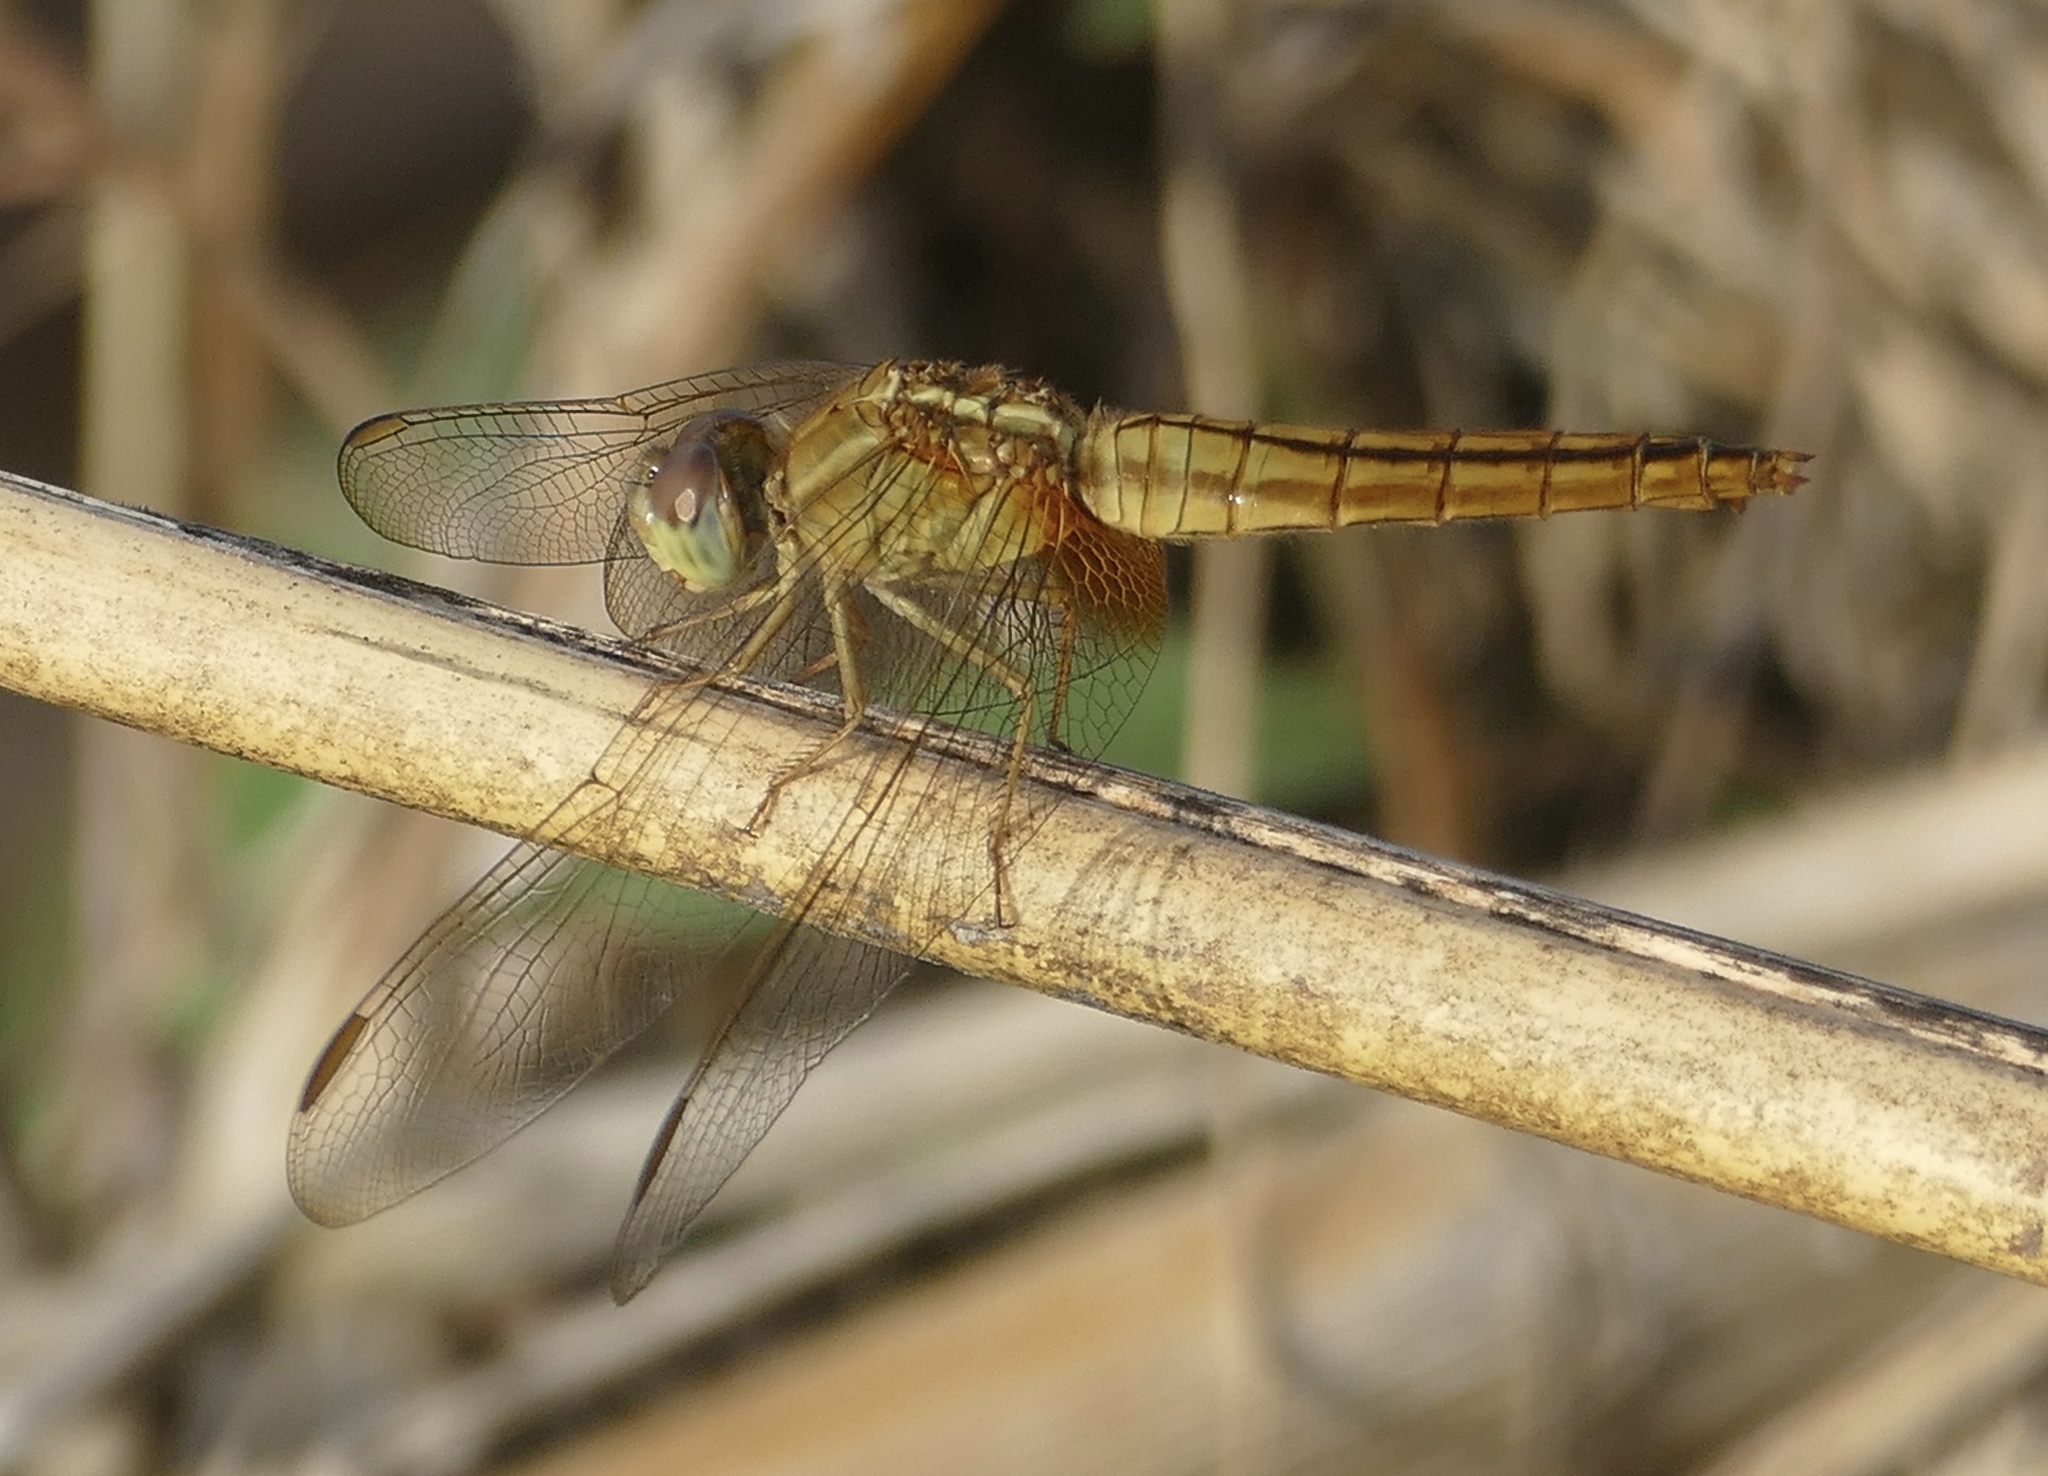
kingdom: Animalia
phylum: Arthropoda
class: Insecta
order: Odonata
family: Libellulidae
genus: Crocothemis
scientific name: Crocothemis servilia
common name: Scarlet skimmer
